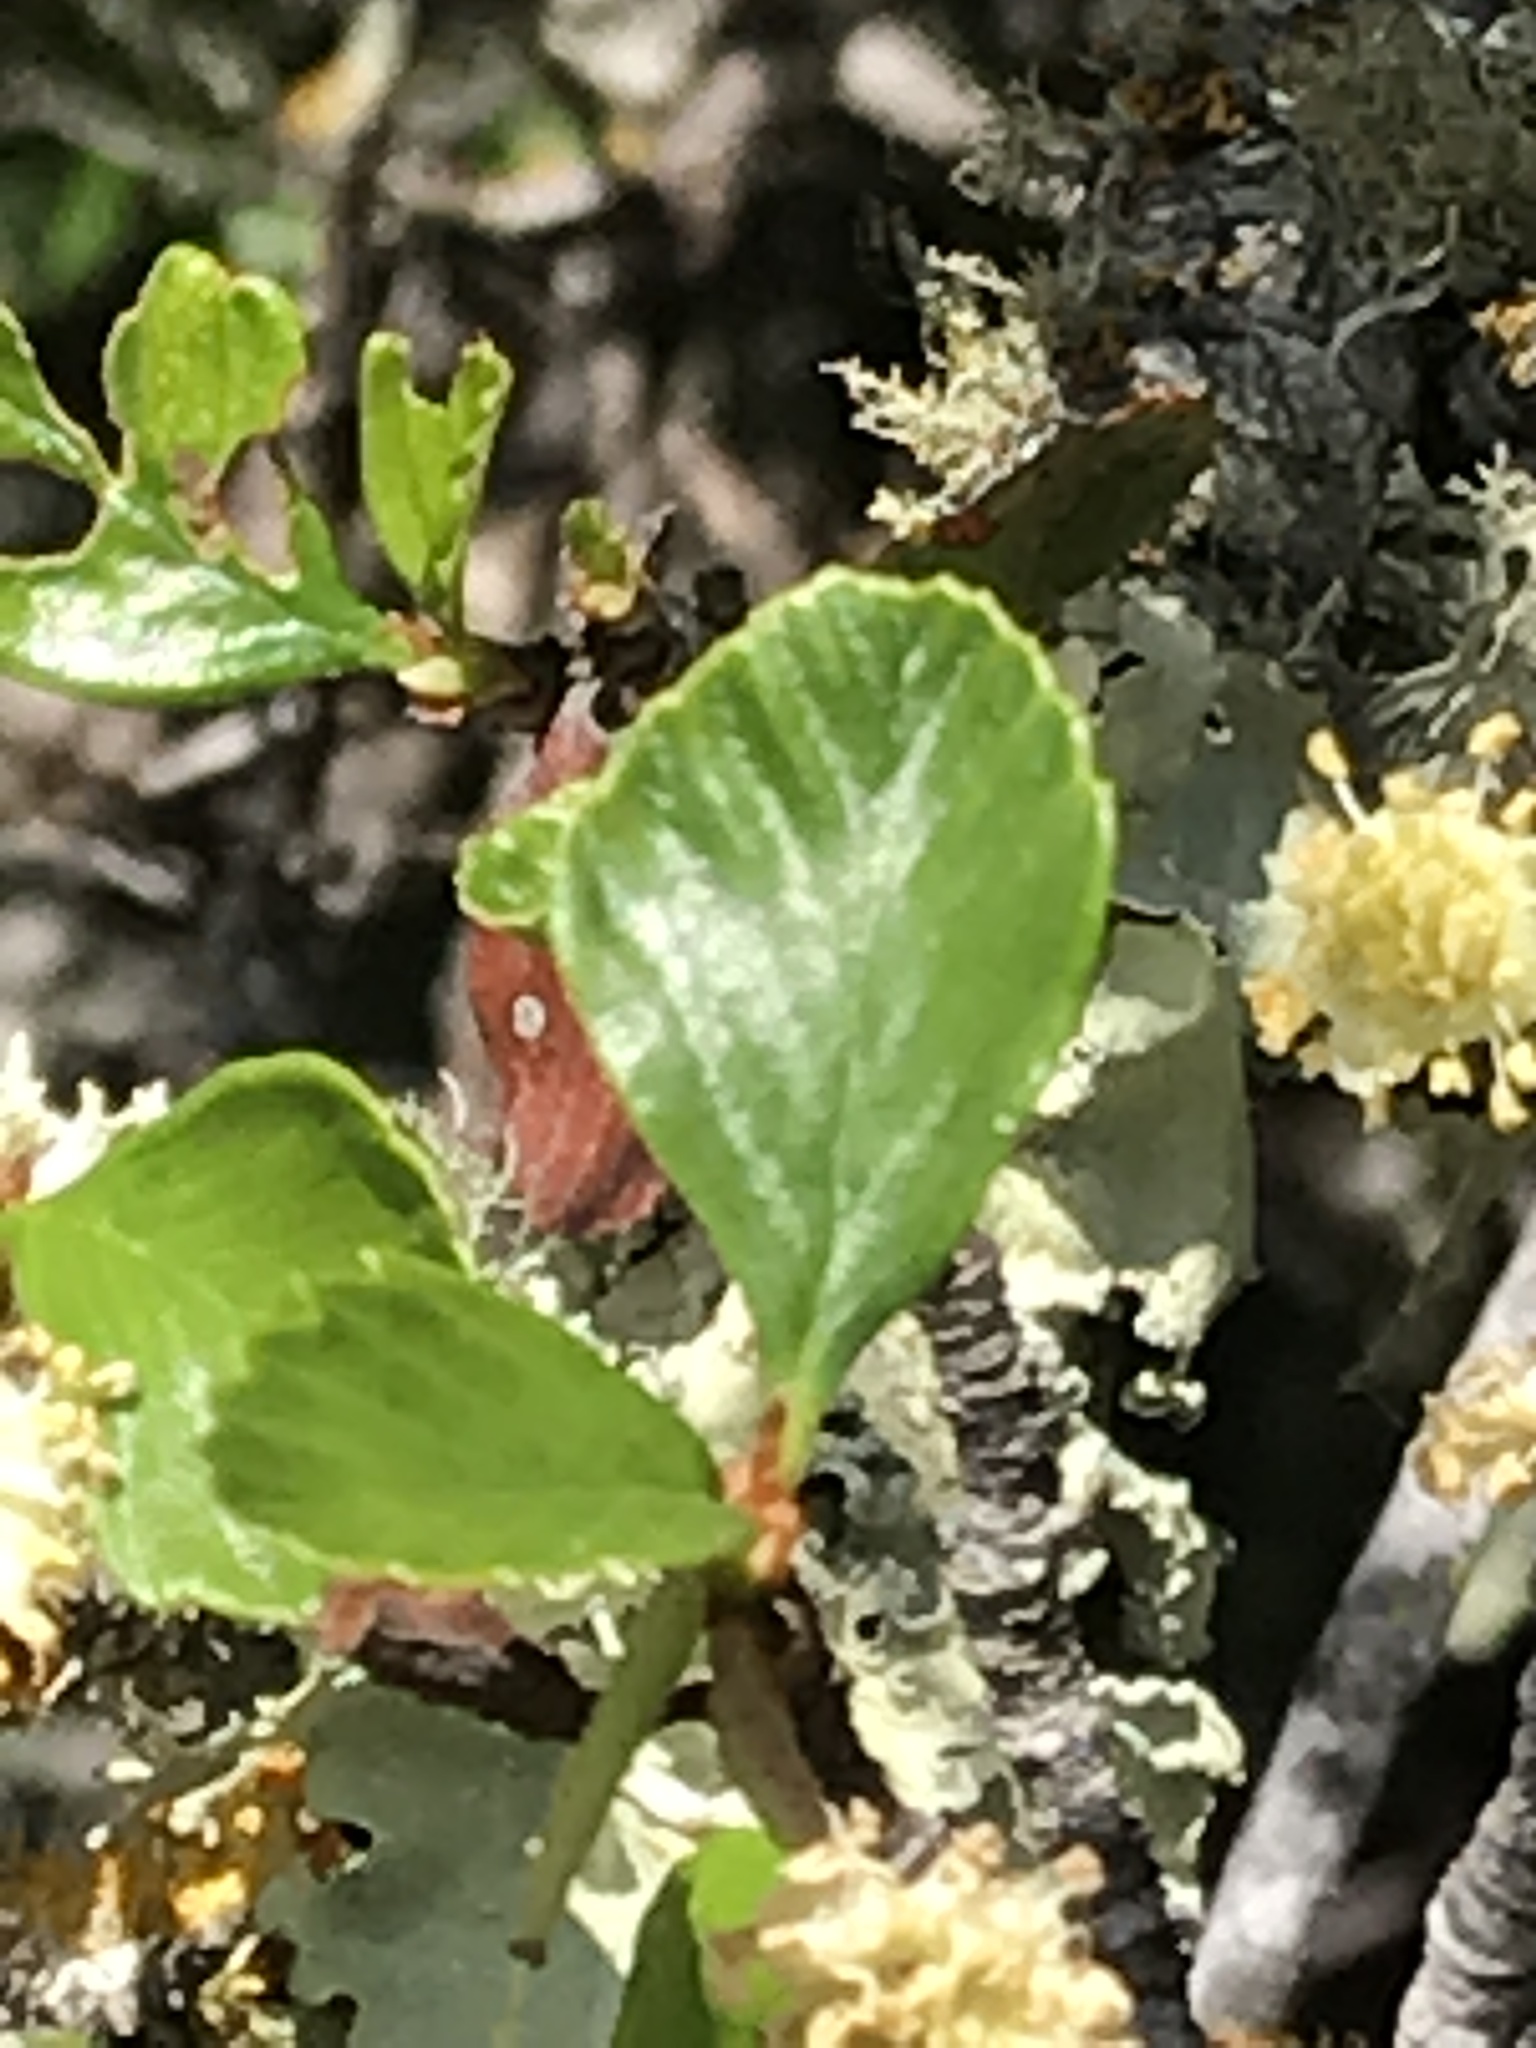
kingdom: Plantae
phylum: Tracheophyta
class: Magnoliopsida
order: Rosales
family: Rosaceae
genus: Cercocarpus
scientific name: Cercocarpus betuloides
